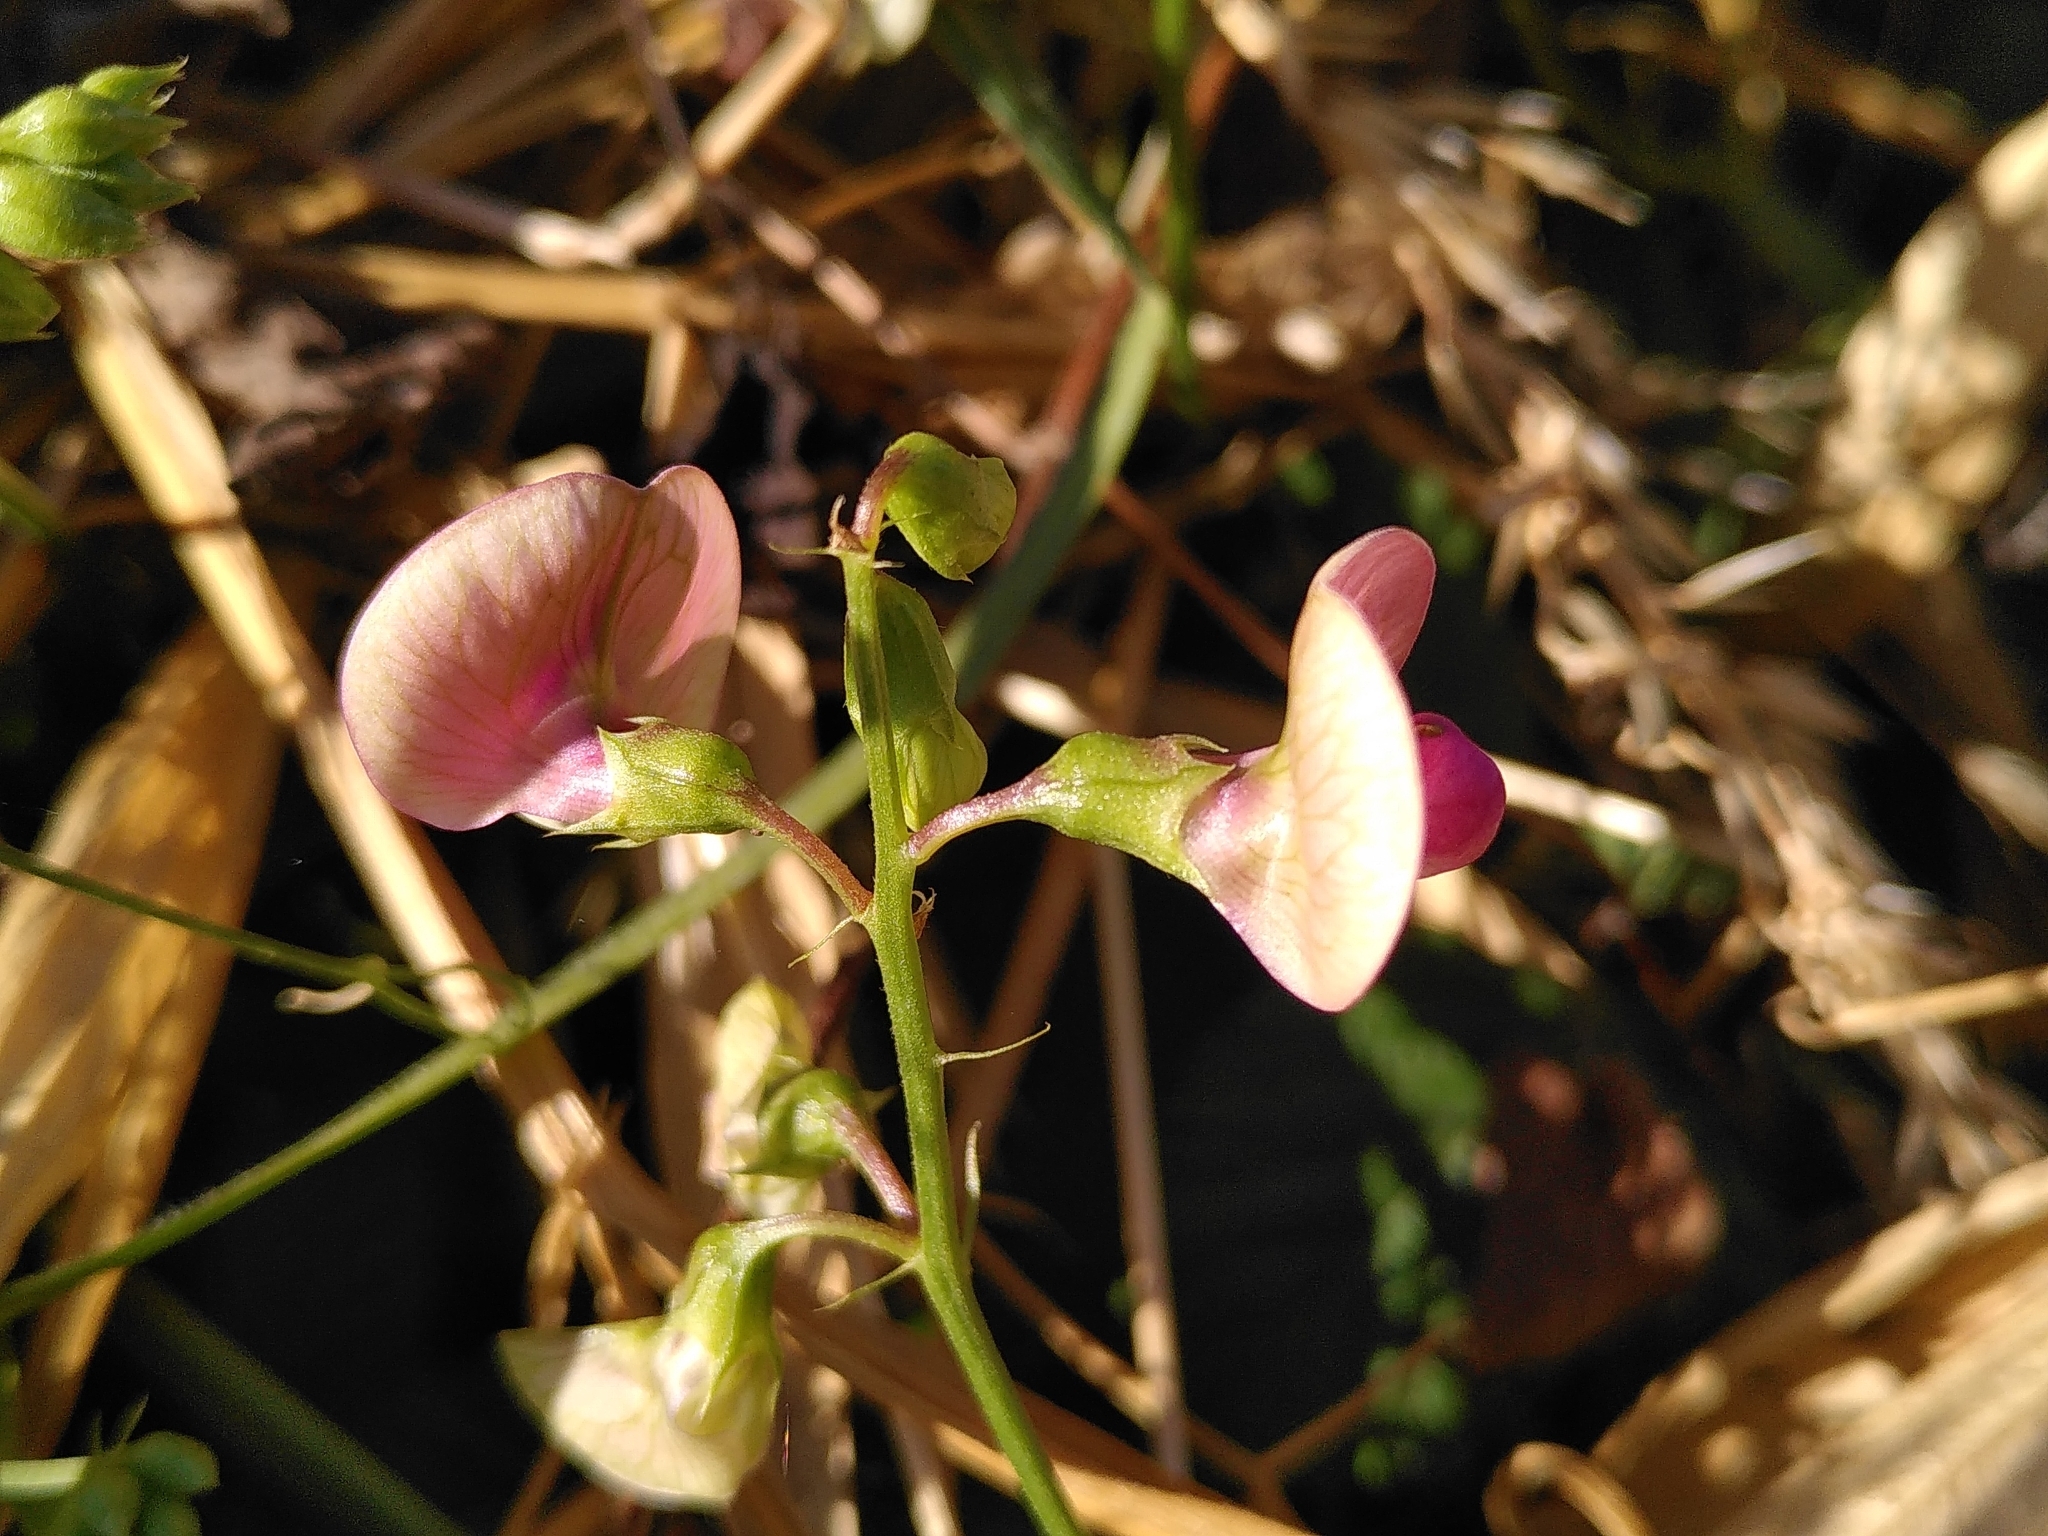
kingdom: Plantae
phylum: Tracheophyta
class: Magnoliopsida
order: Fabales
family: Fabaceae
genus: Lathyrus
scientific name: Lathyrus sylvestris
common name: Flat pea
